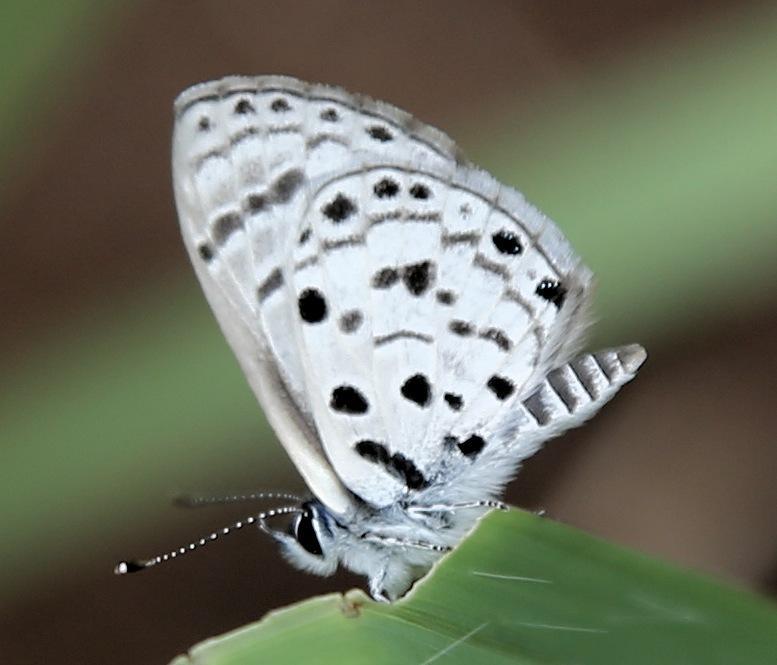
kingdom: Animalia
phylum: Arthropoda
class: Insecta
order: Lepidoptera
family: Lycaenidae
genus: Azanus
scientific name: Azanus moriqua
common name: Thorn-tree babul blue
